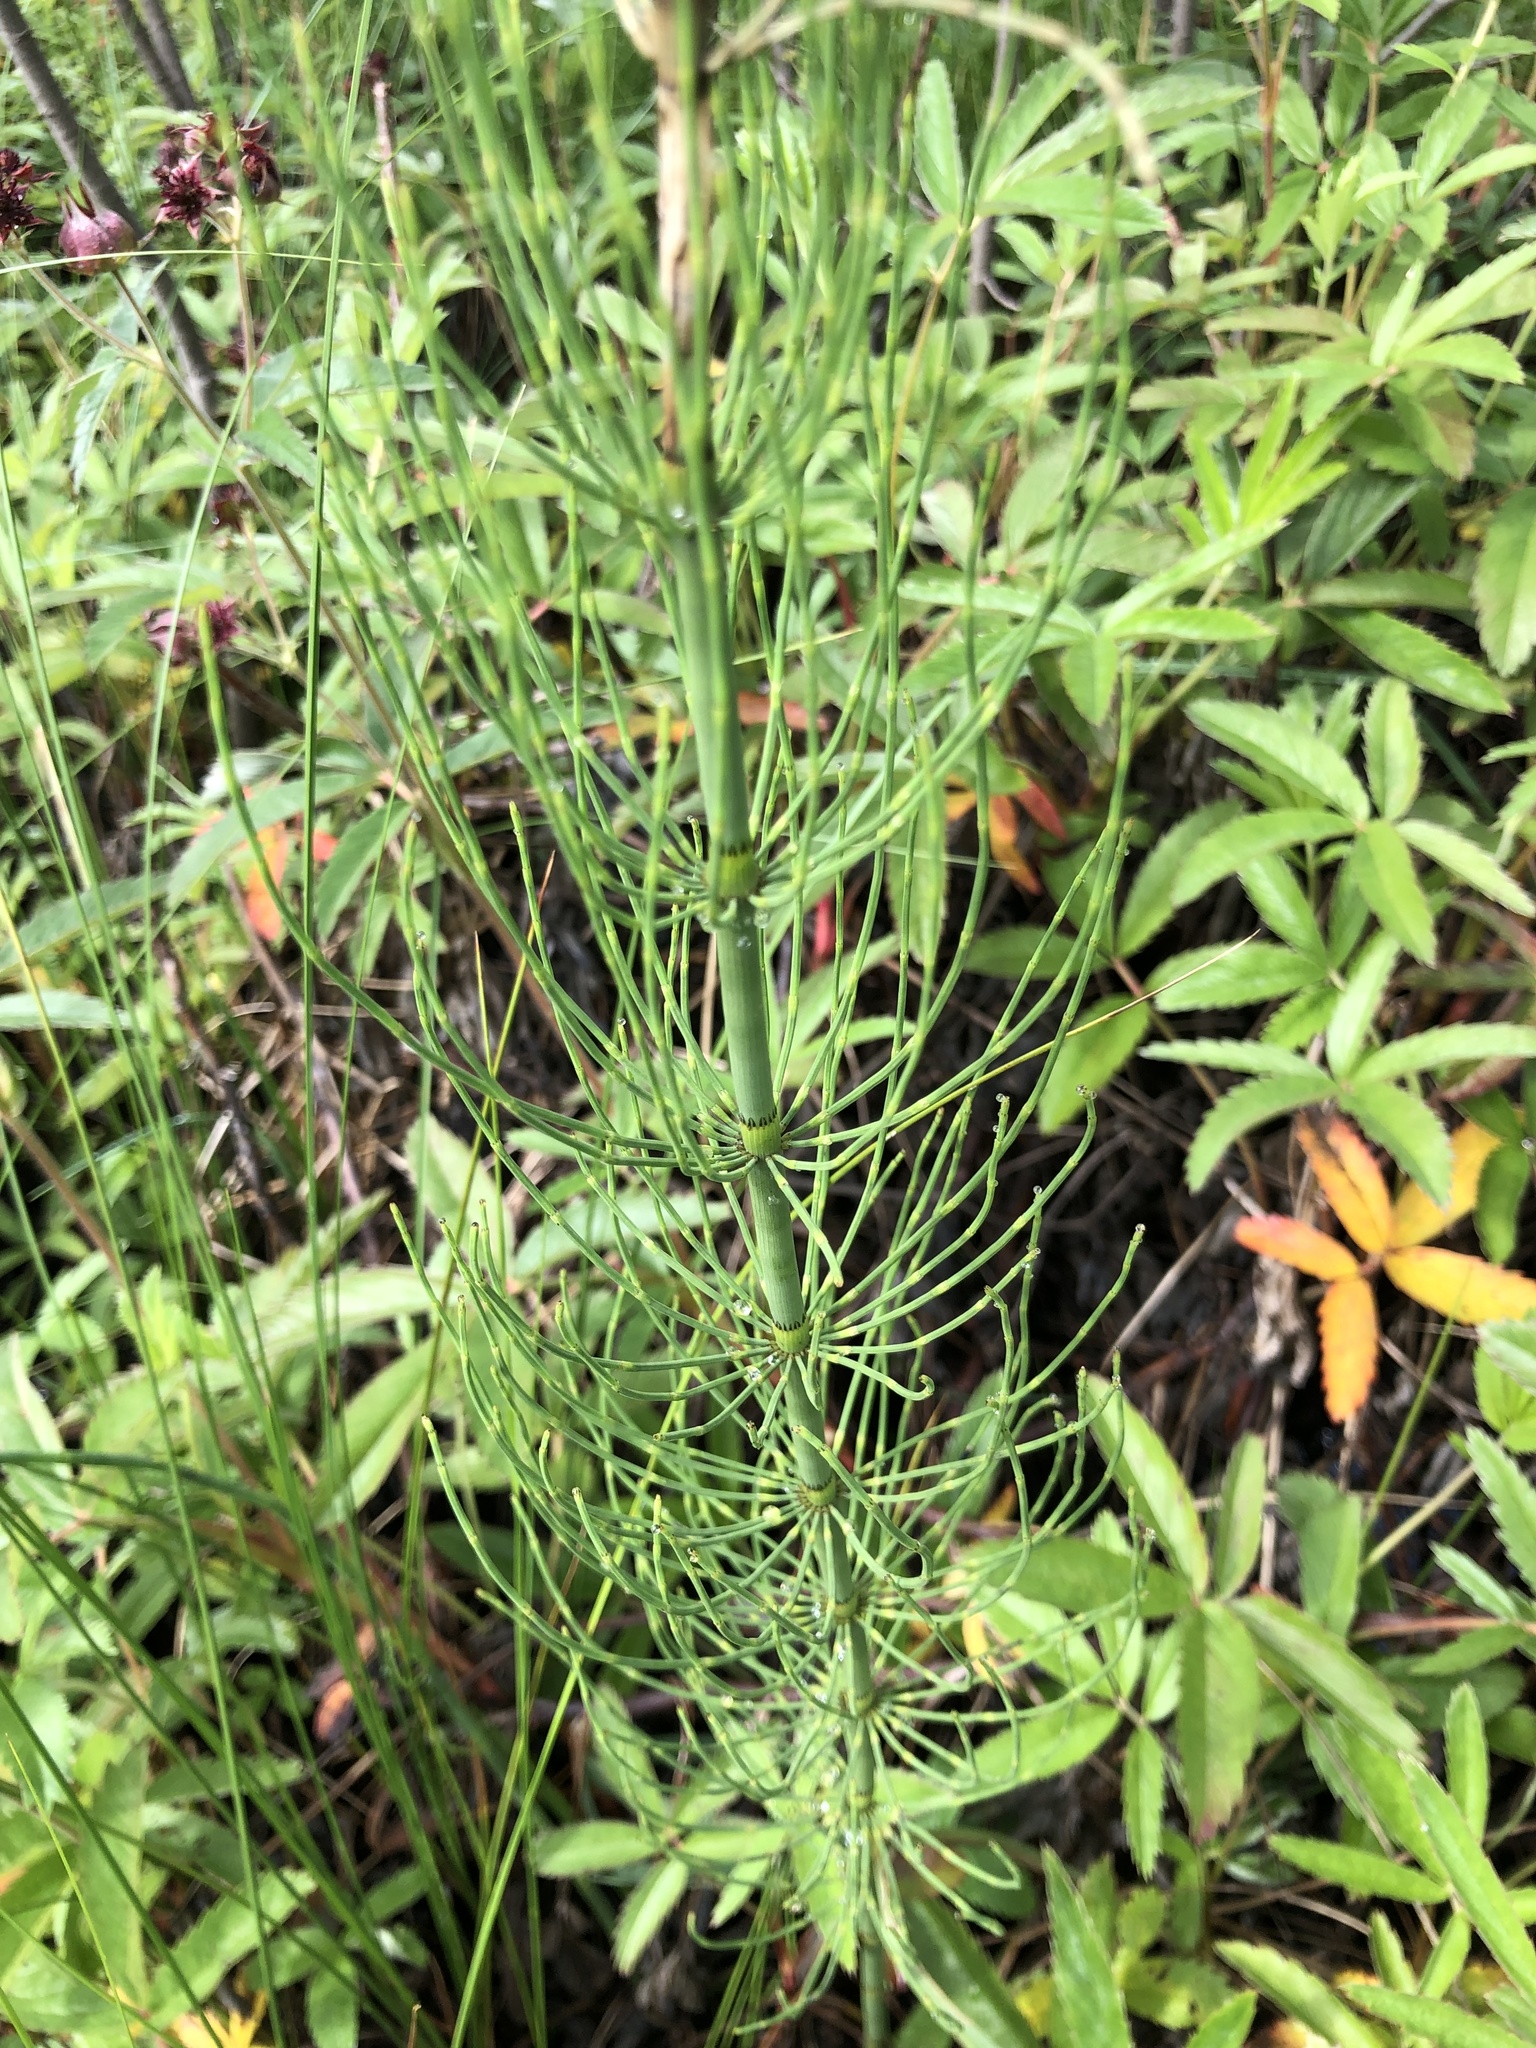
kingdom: Plantae
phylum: Tracheophyta
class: Polypodiopsida
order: Equisetales
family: Equisetaceae
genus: Equisetum
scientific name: Equisetum fluviatile
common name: Water horsetail
